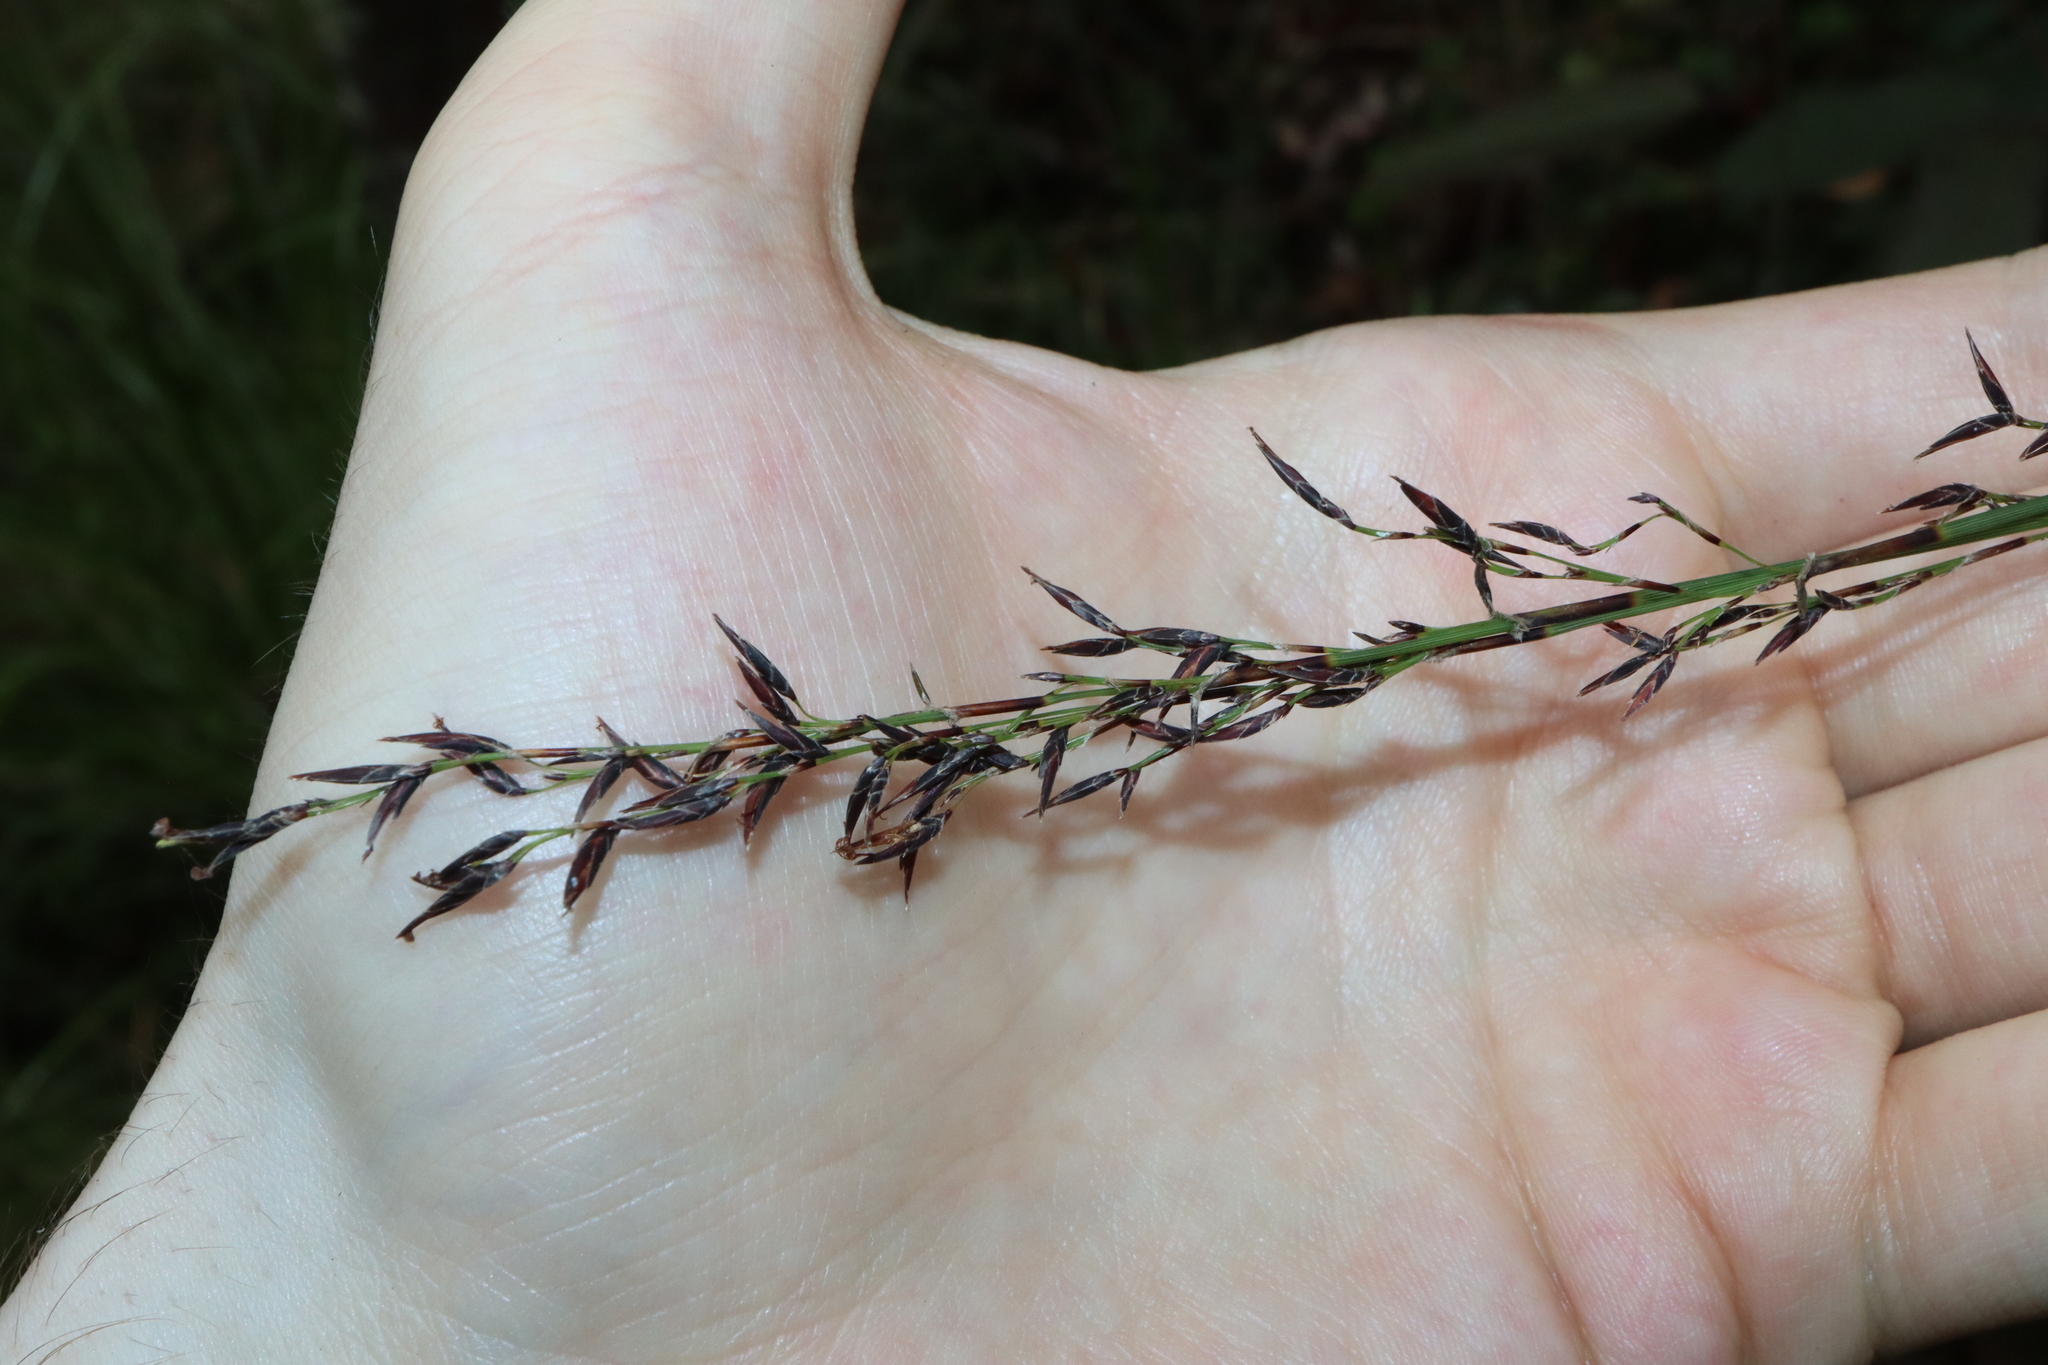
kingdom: Plantae
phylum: Tracheophyta
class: Liliopsida
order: Poales
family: Cyperaceae
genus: Schoenus
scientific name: Schoenus melanostachys
